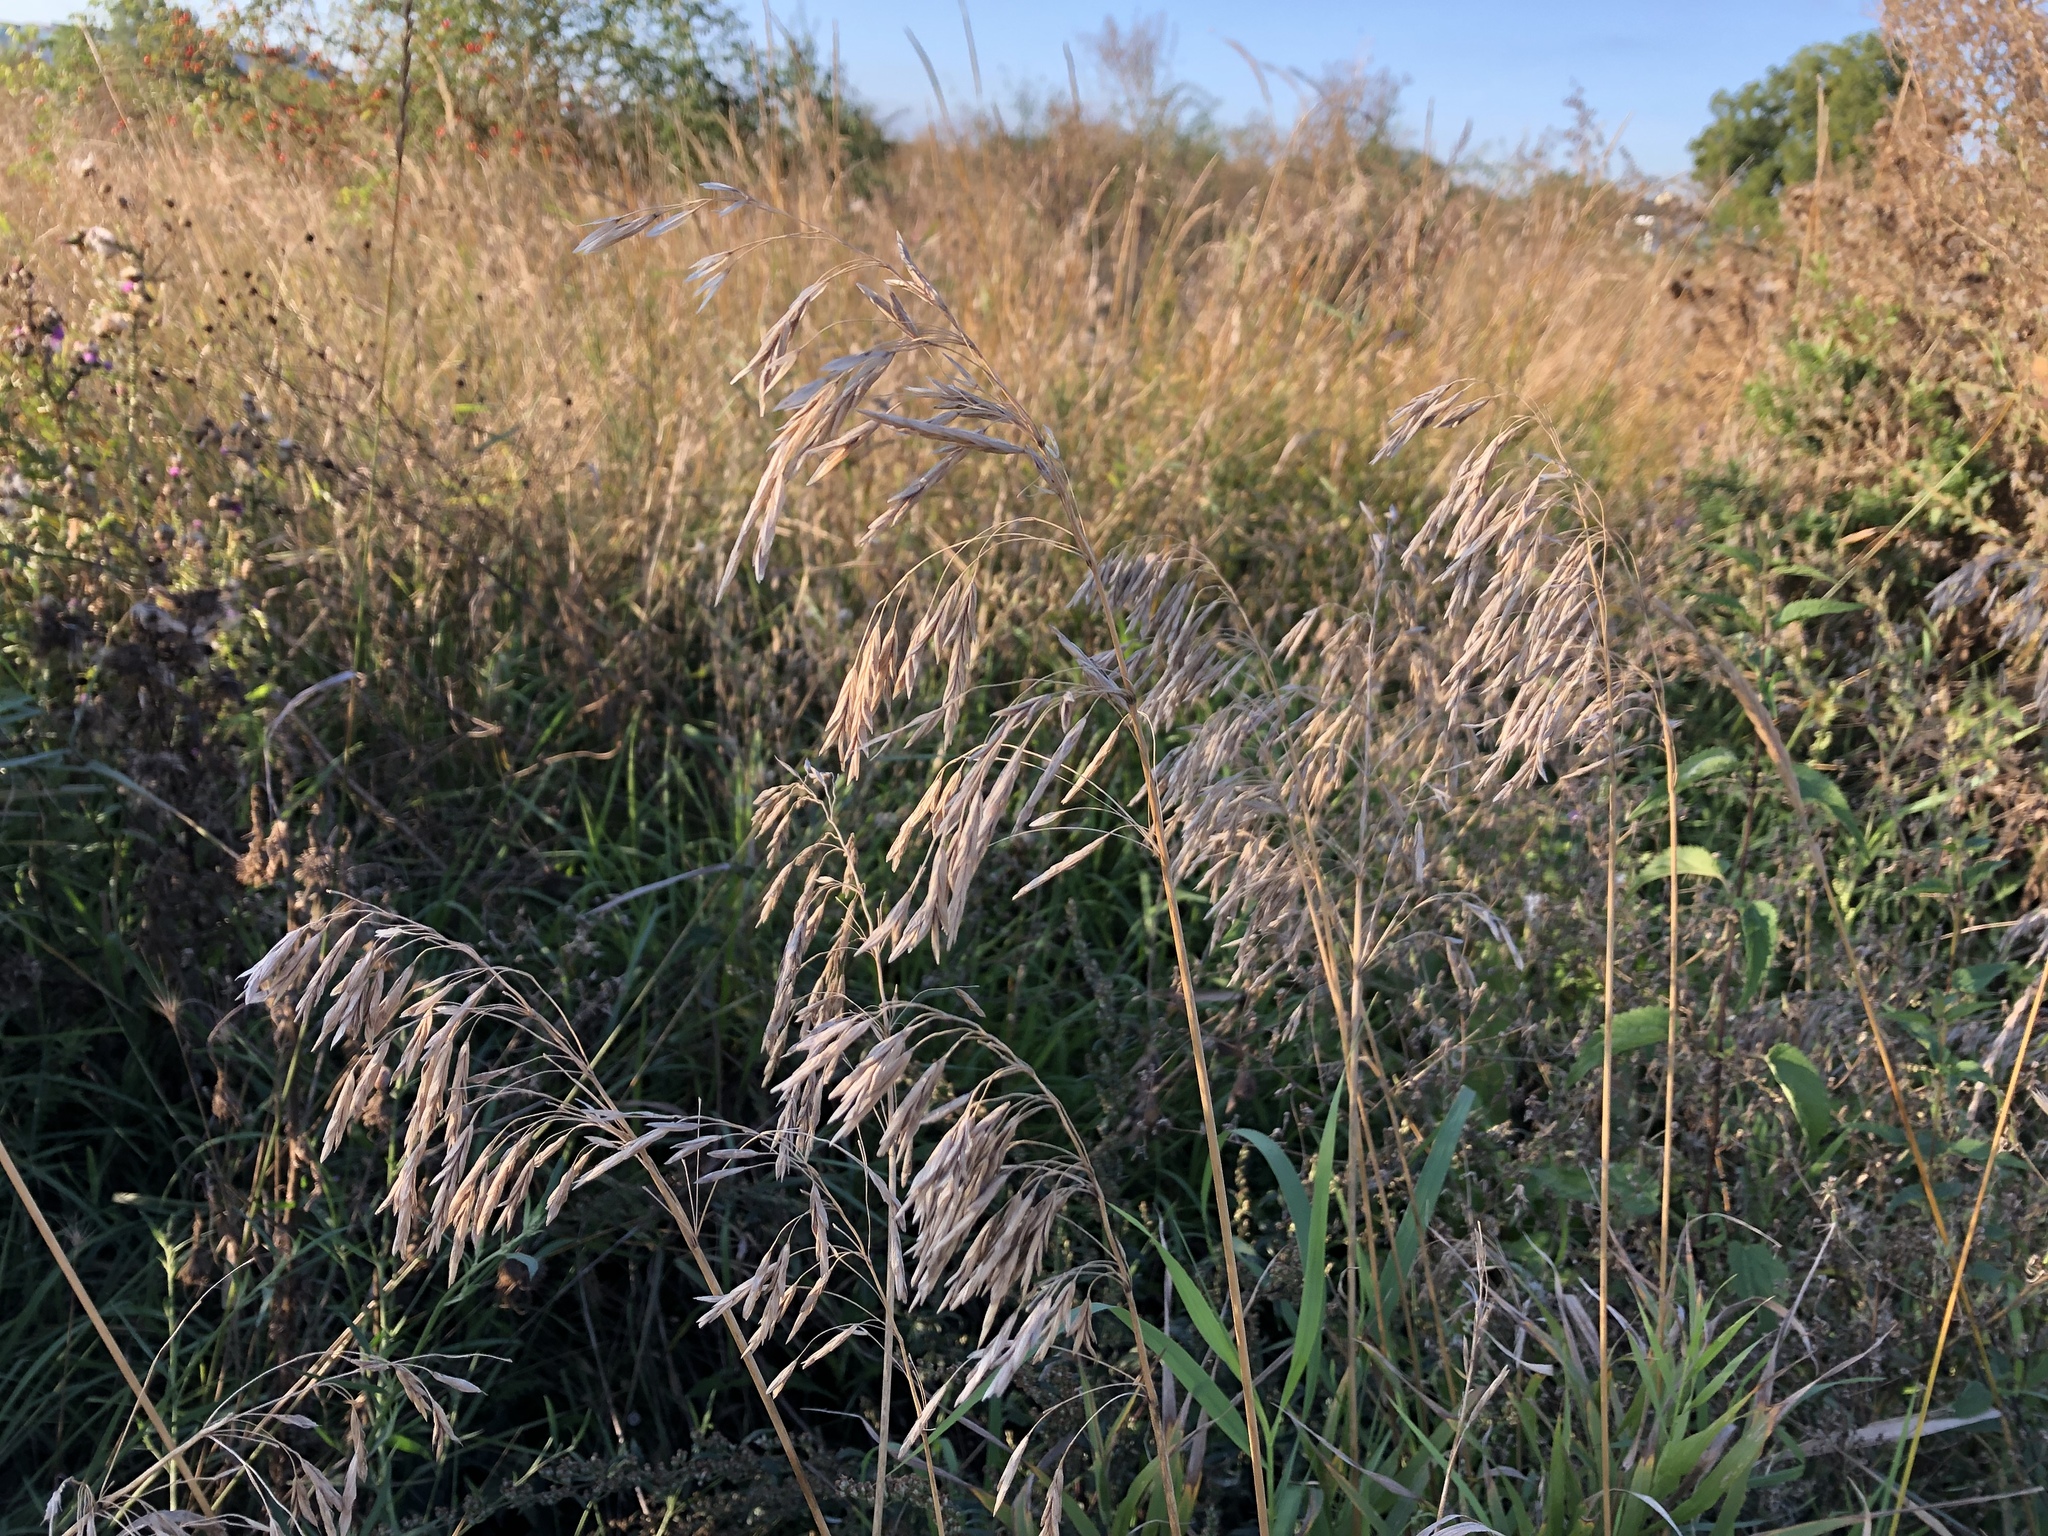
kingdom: Plantae
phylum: Tracheophyta
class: Liliopsida
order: Poales
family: Poaceae
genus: Bromus
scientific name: Bromus inermis
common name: Smooth brome
